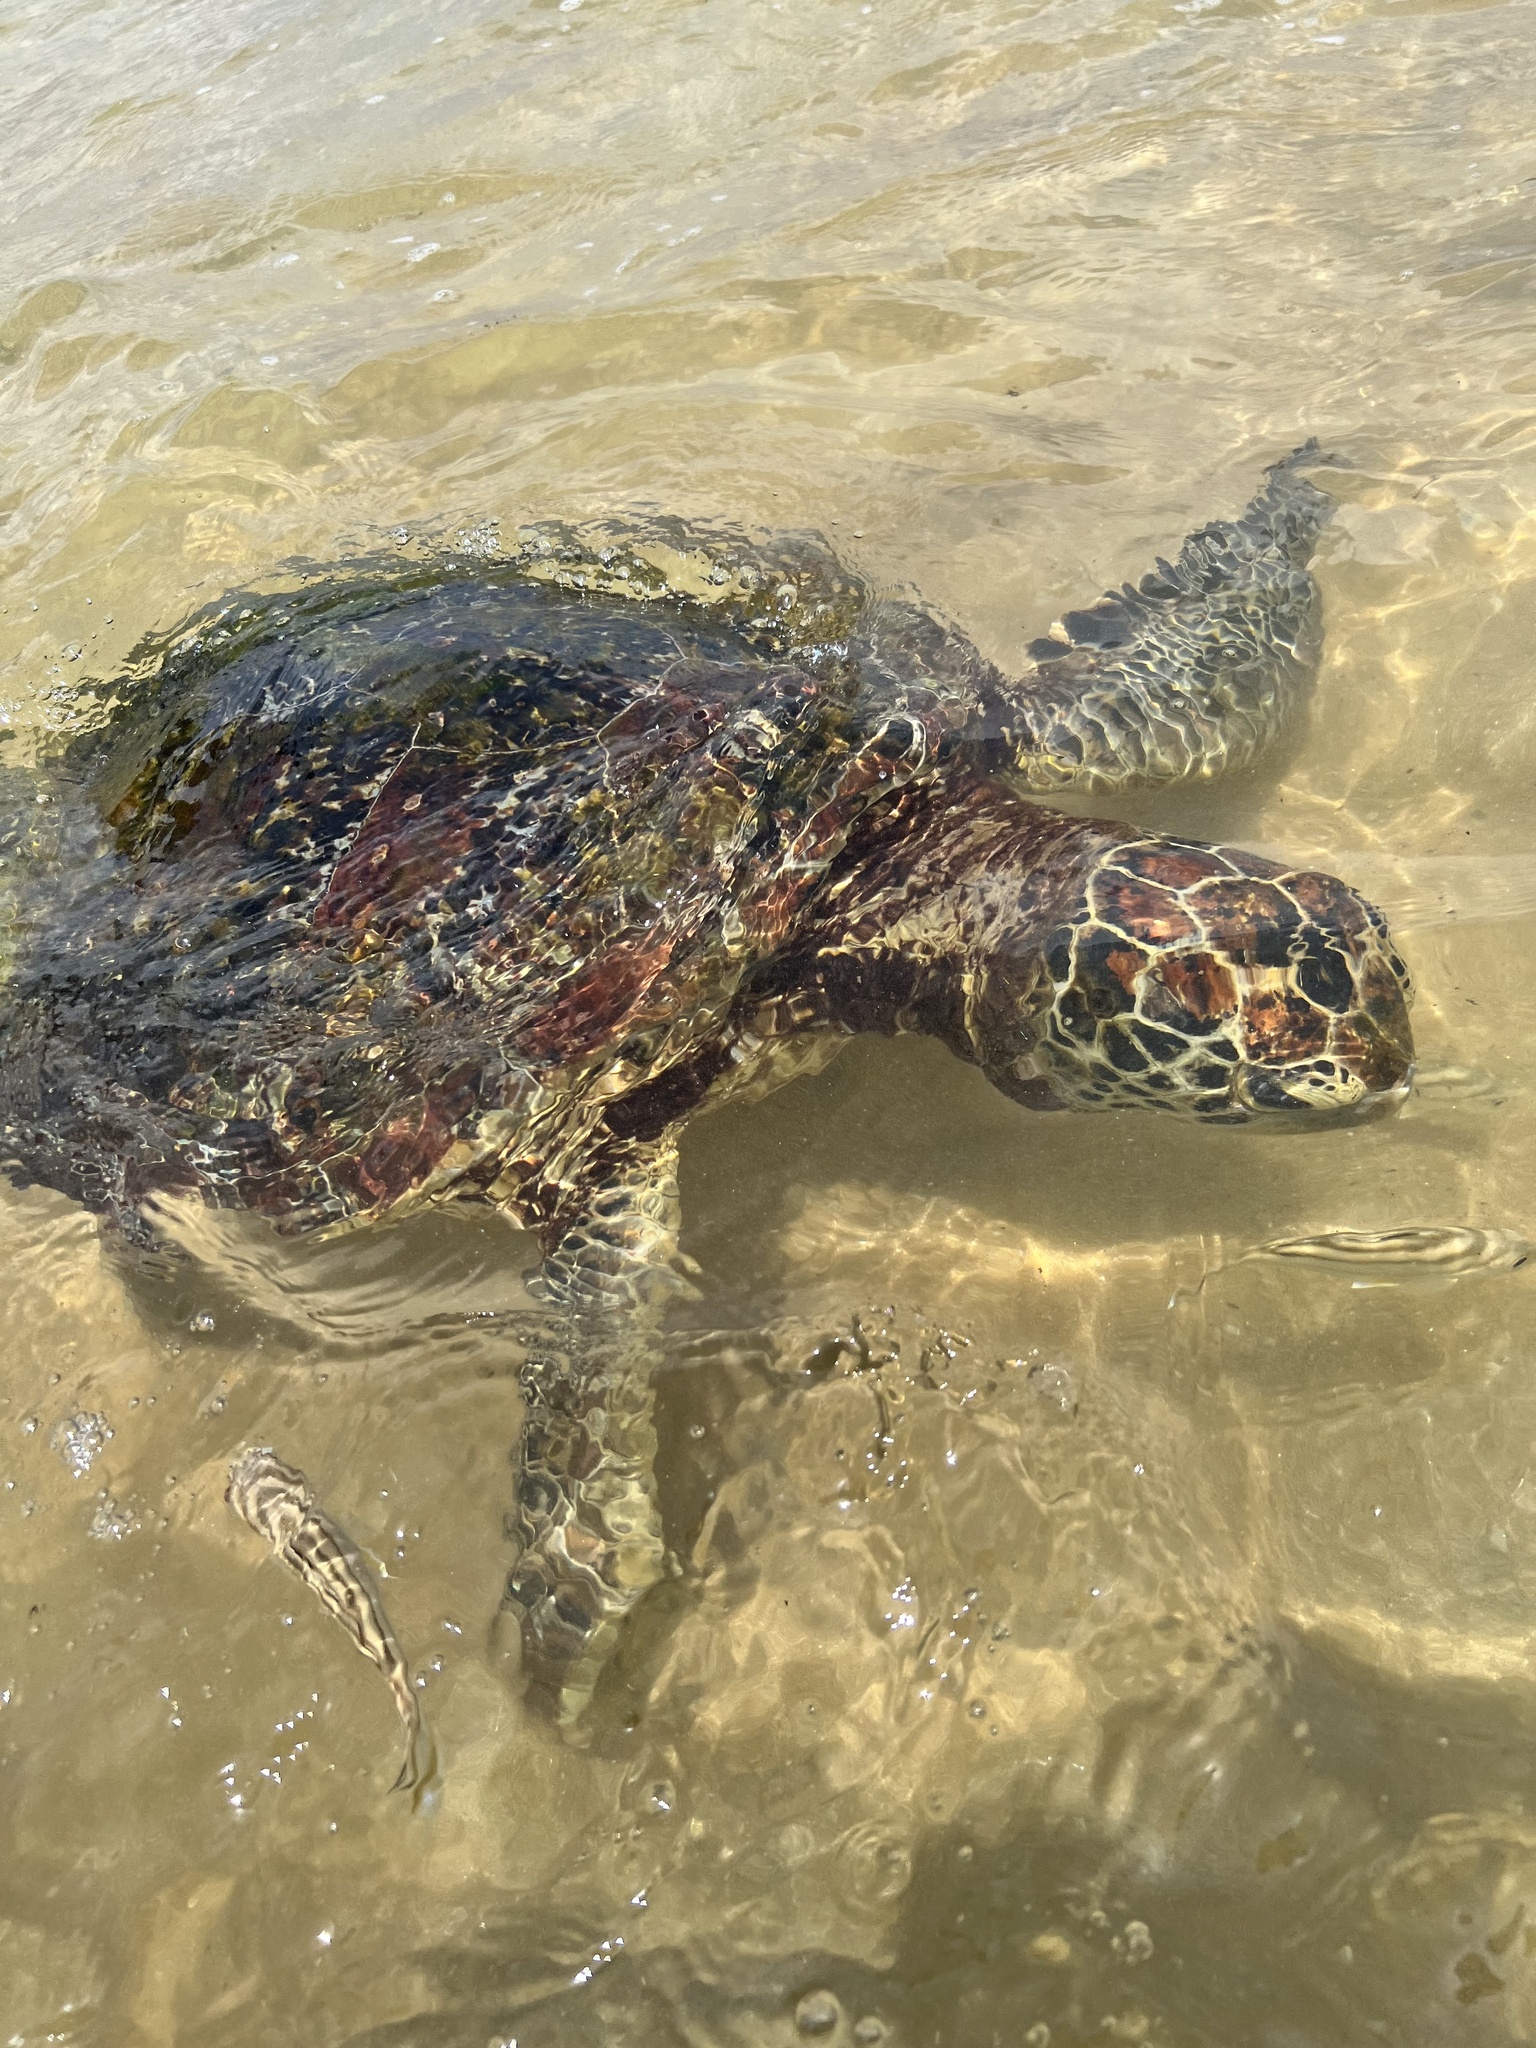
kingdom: Animalia
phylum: Chordata
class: Testudines
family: Cheloniidae
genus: Chelonia
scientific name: Chelonia mydas
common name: Green turtle
